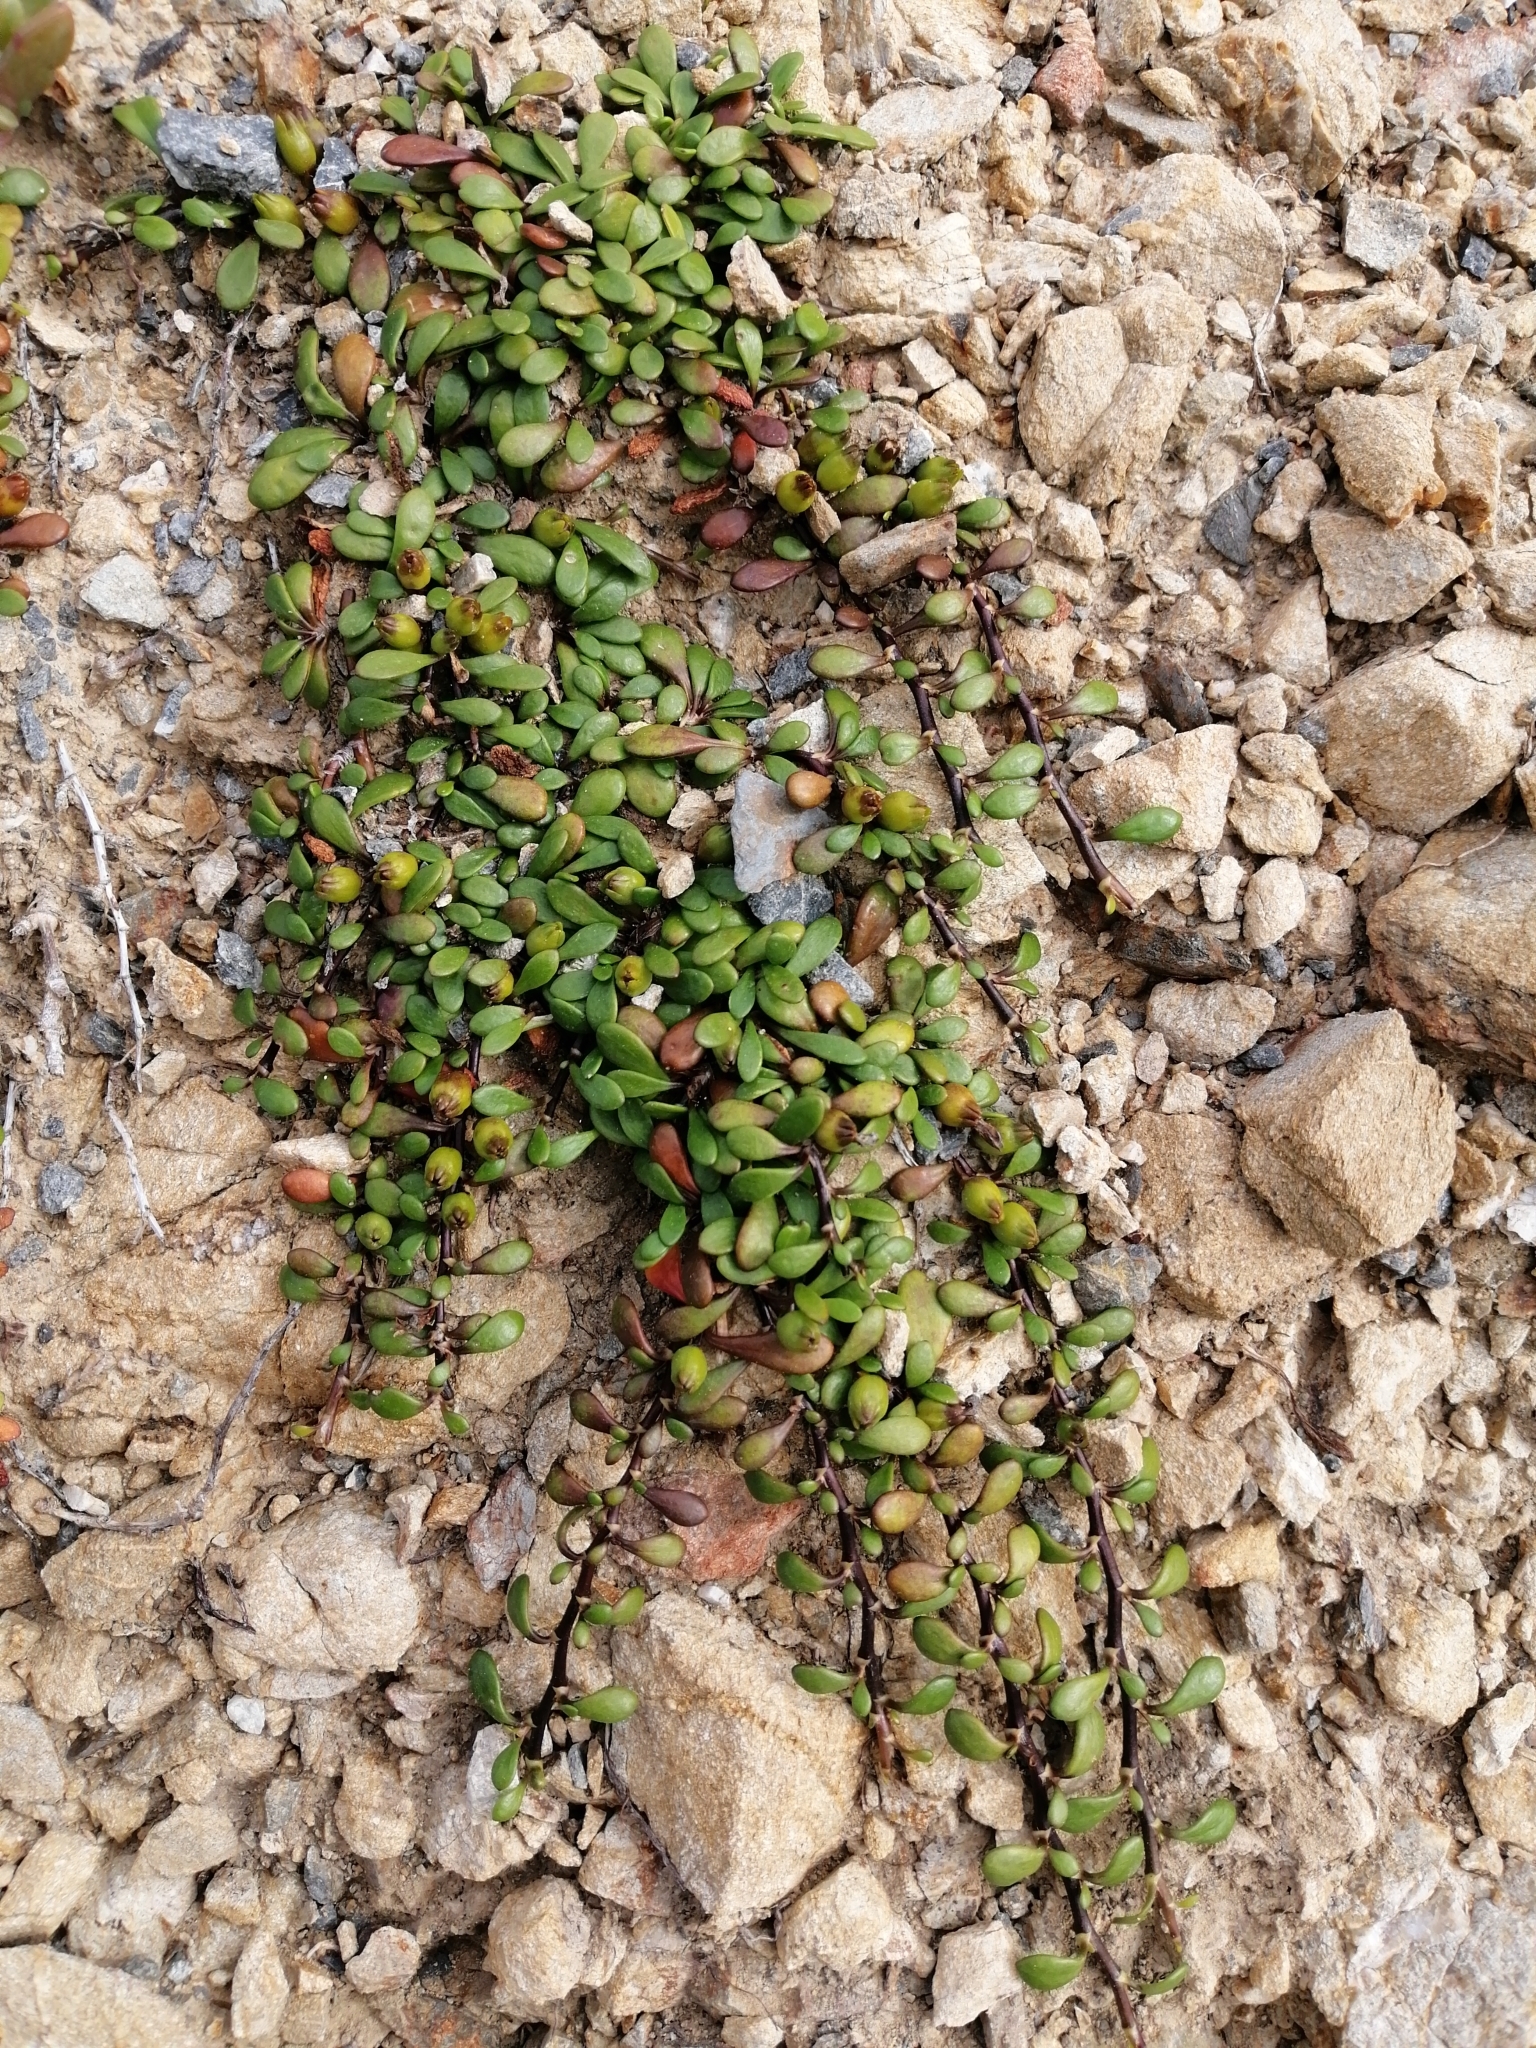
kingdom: Plantae
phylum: Tracheophyta
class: Magnoliopsida
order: Asterales
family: Goodeniaceae
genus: Goodenia
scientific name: Goodenia radicans
